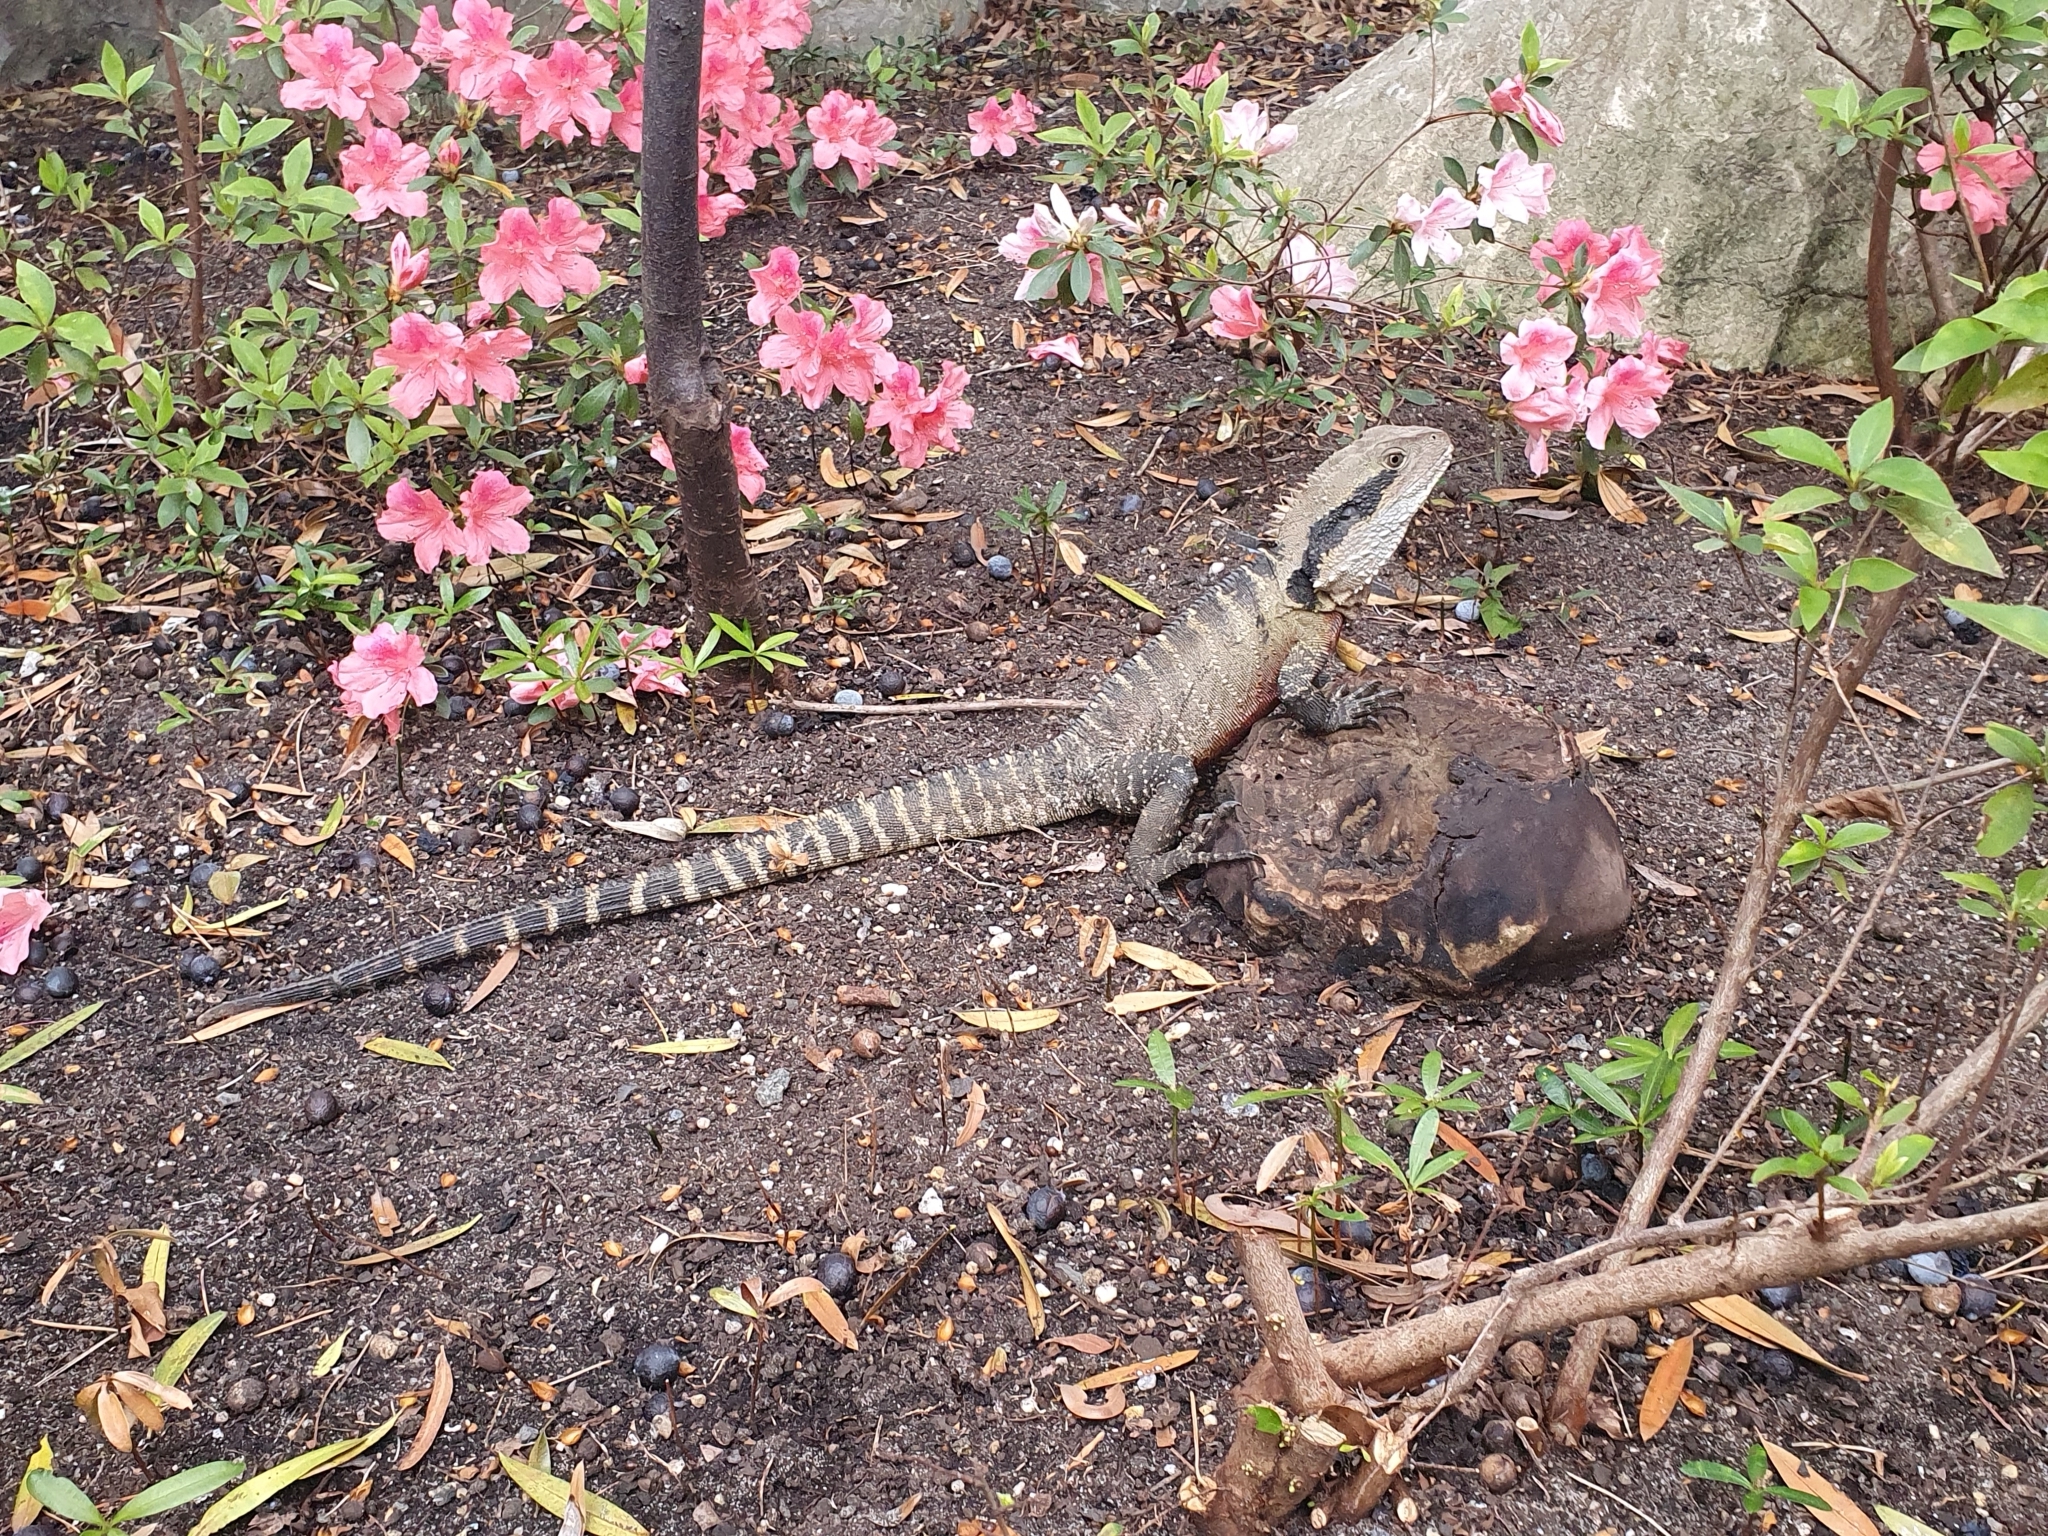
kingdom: Animalia
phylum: Chordata
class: Squamata
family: Agamidae
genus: Intellagama
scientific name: Intellagama lesueurii
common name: Eastern water dragon
